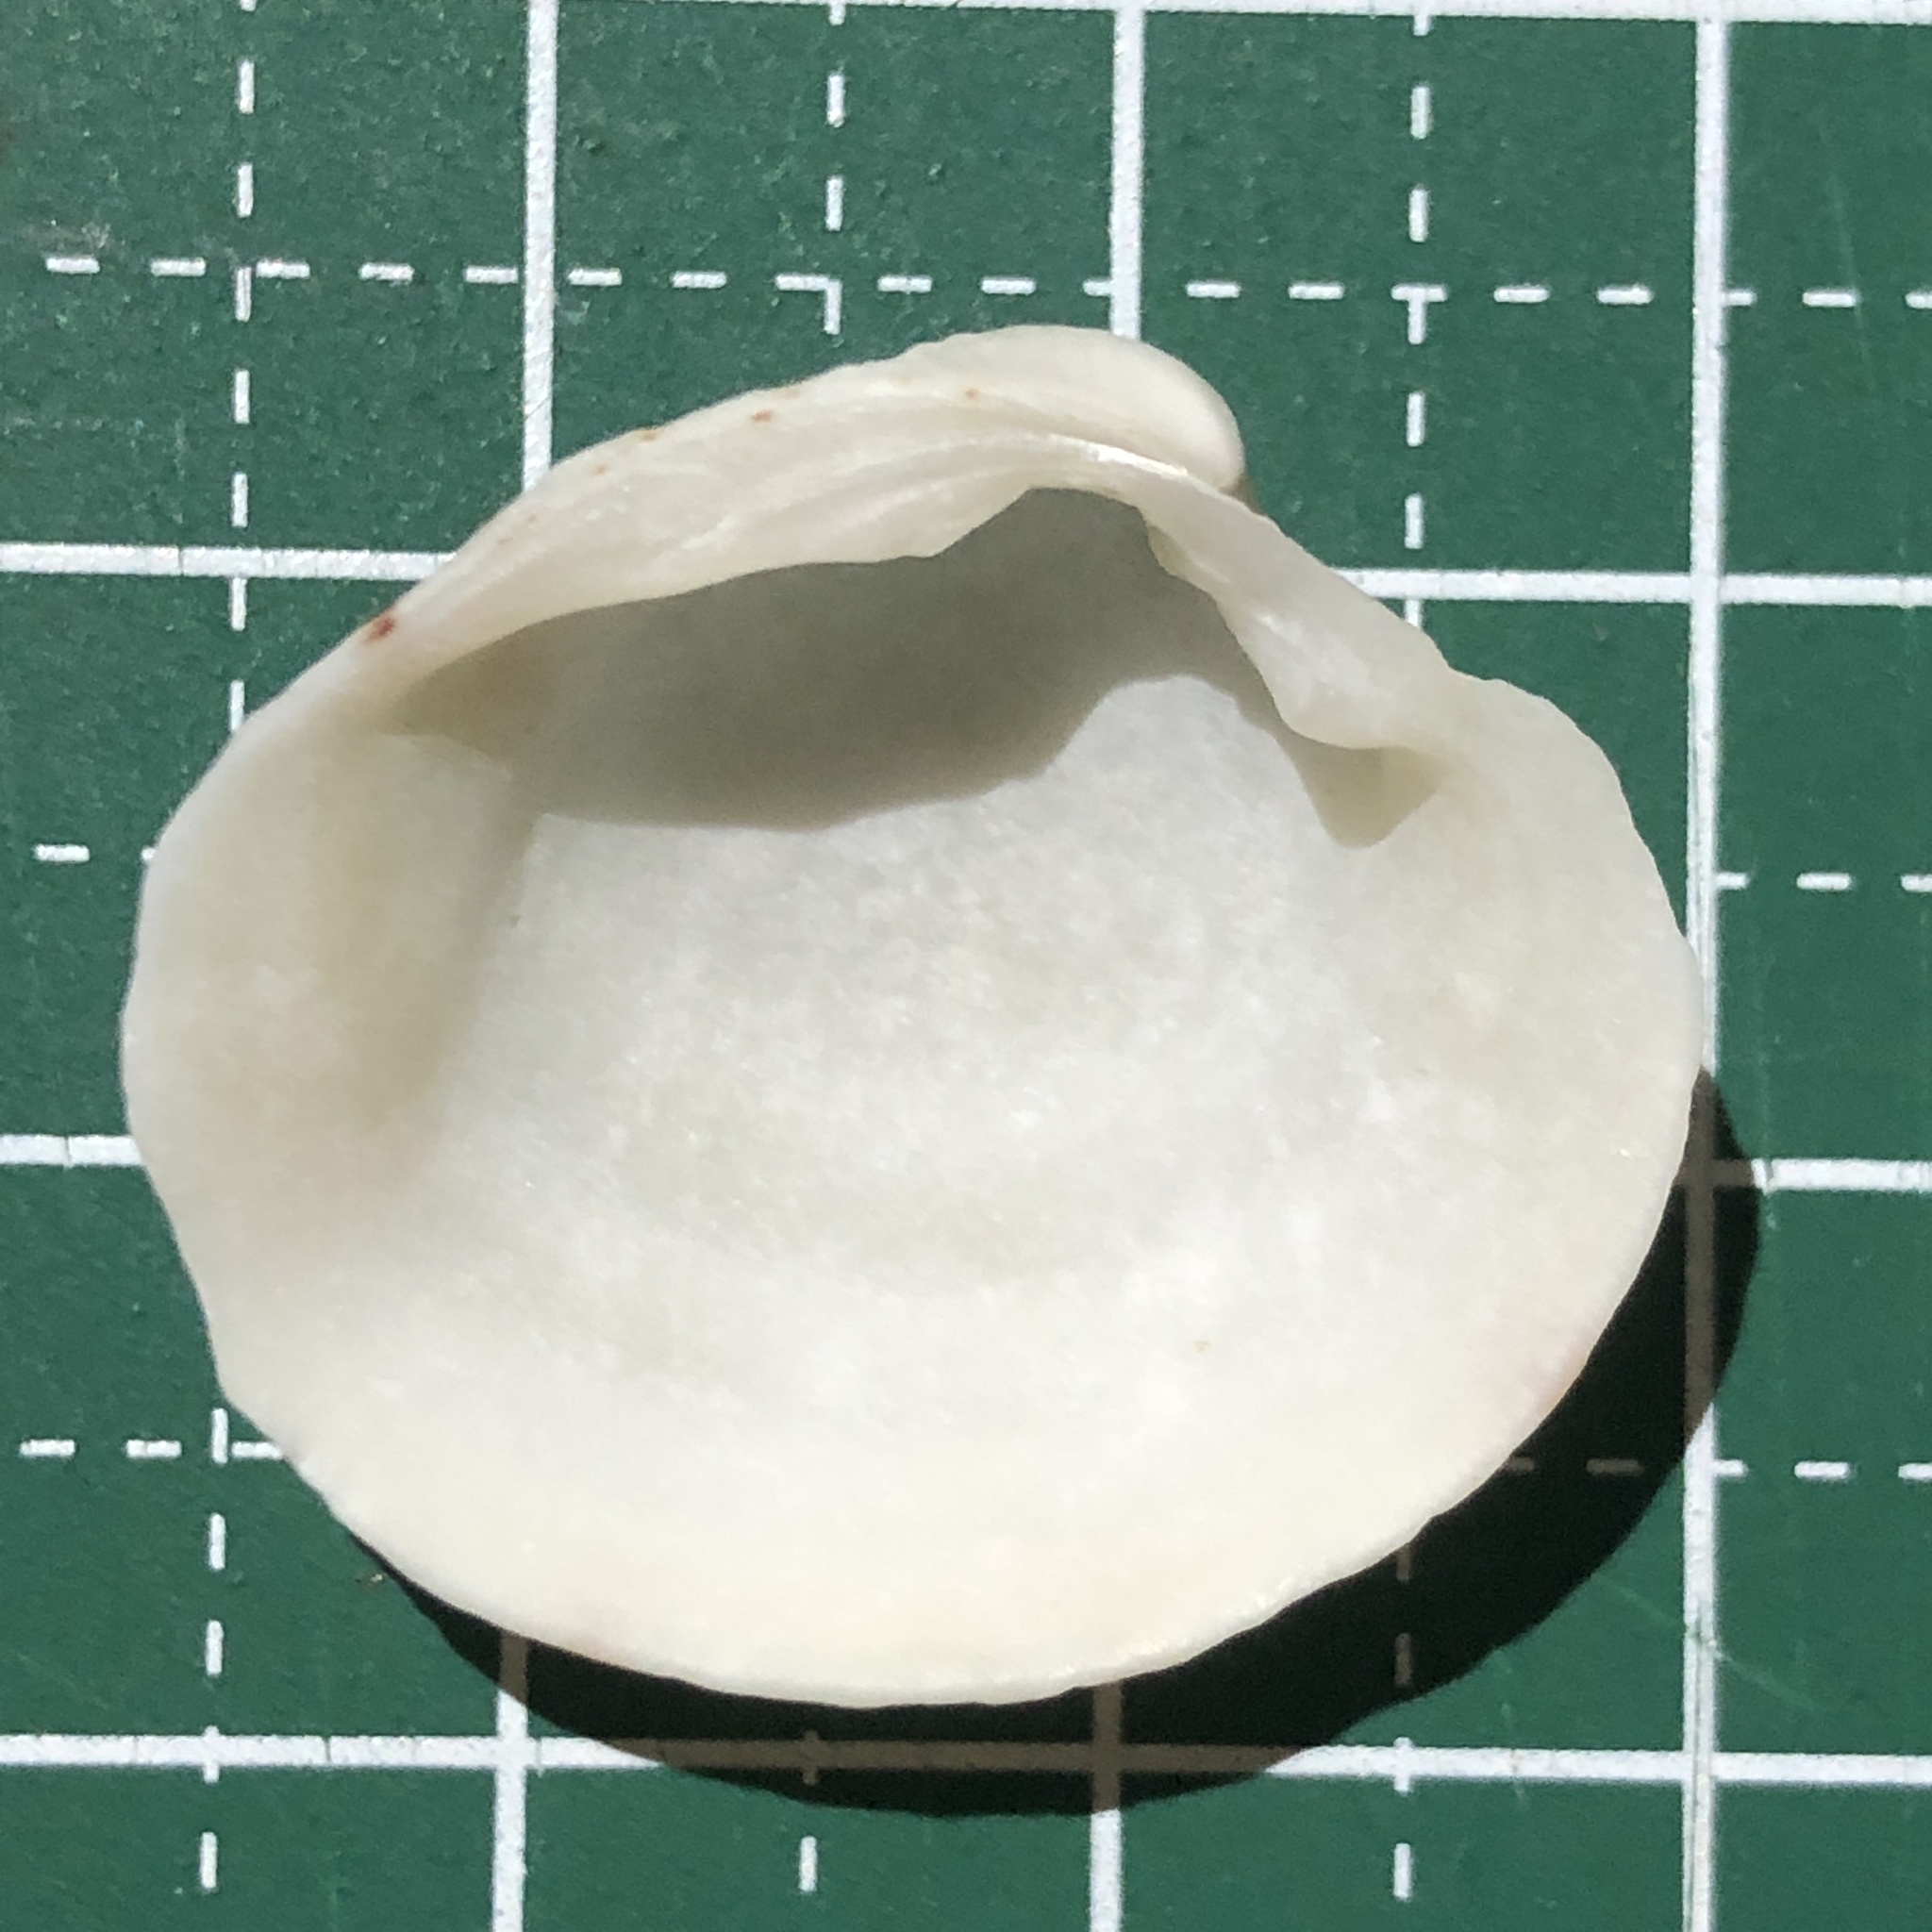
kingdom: Animalia
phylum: Mollusca
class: Bivalvia
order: Venerida
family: Veneridae
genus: Globivenus
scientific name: Globivenus toreuma
